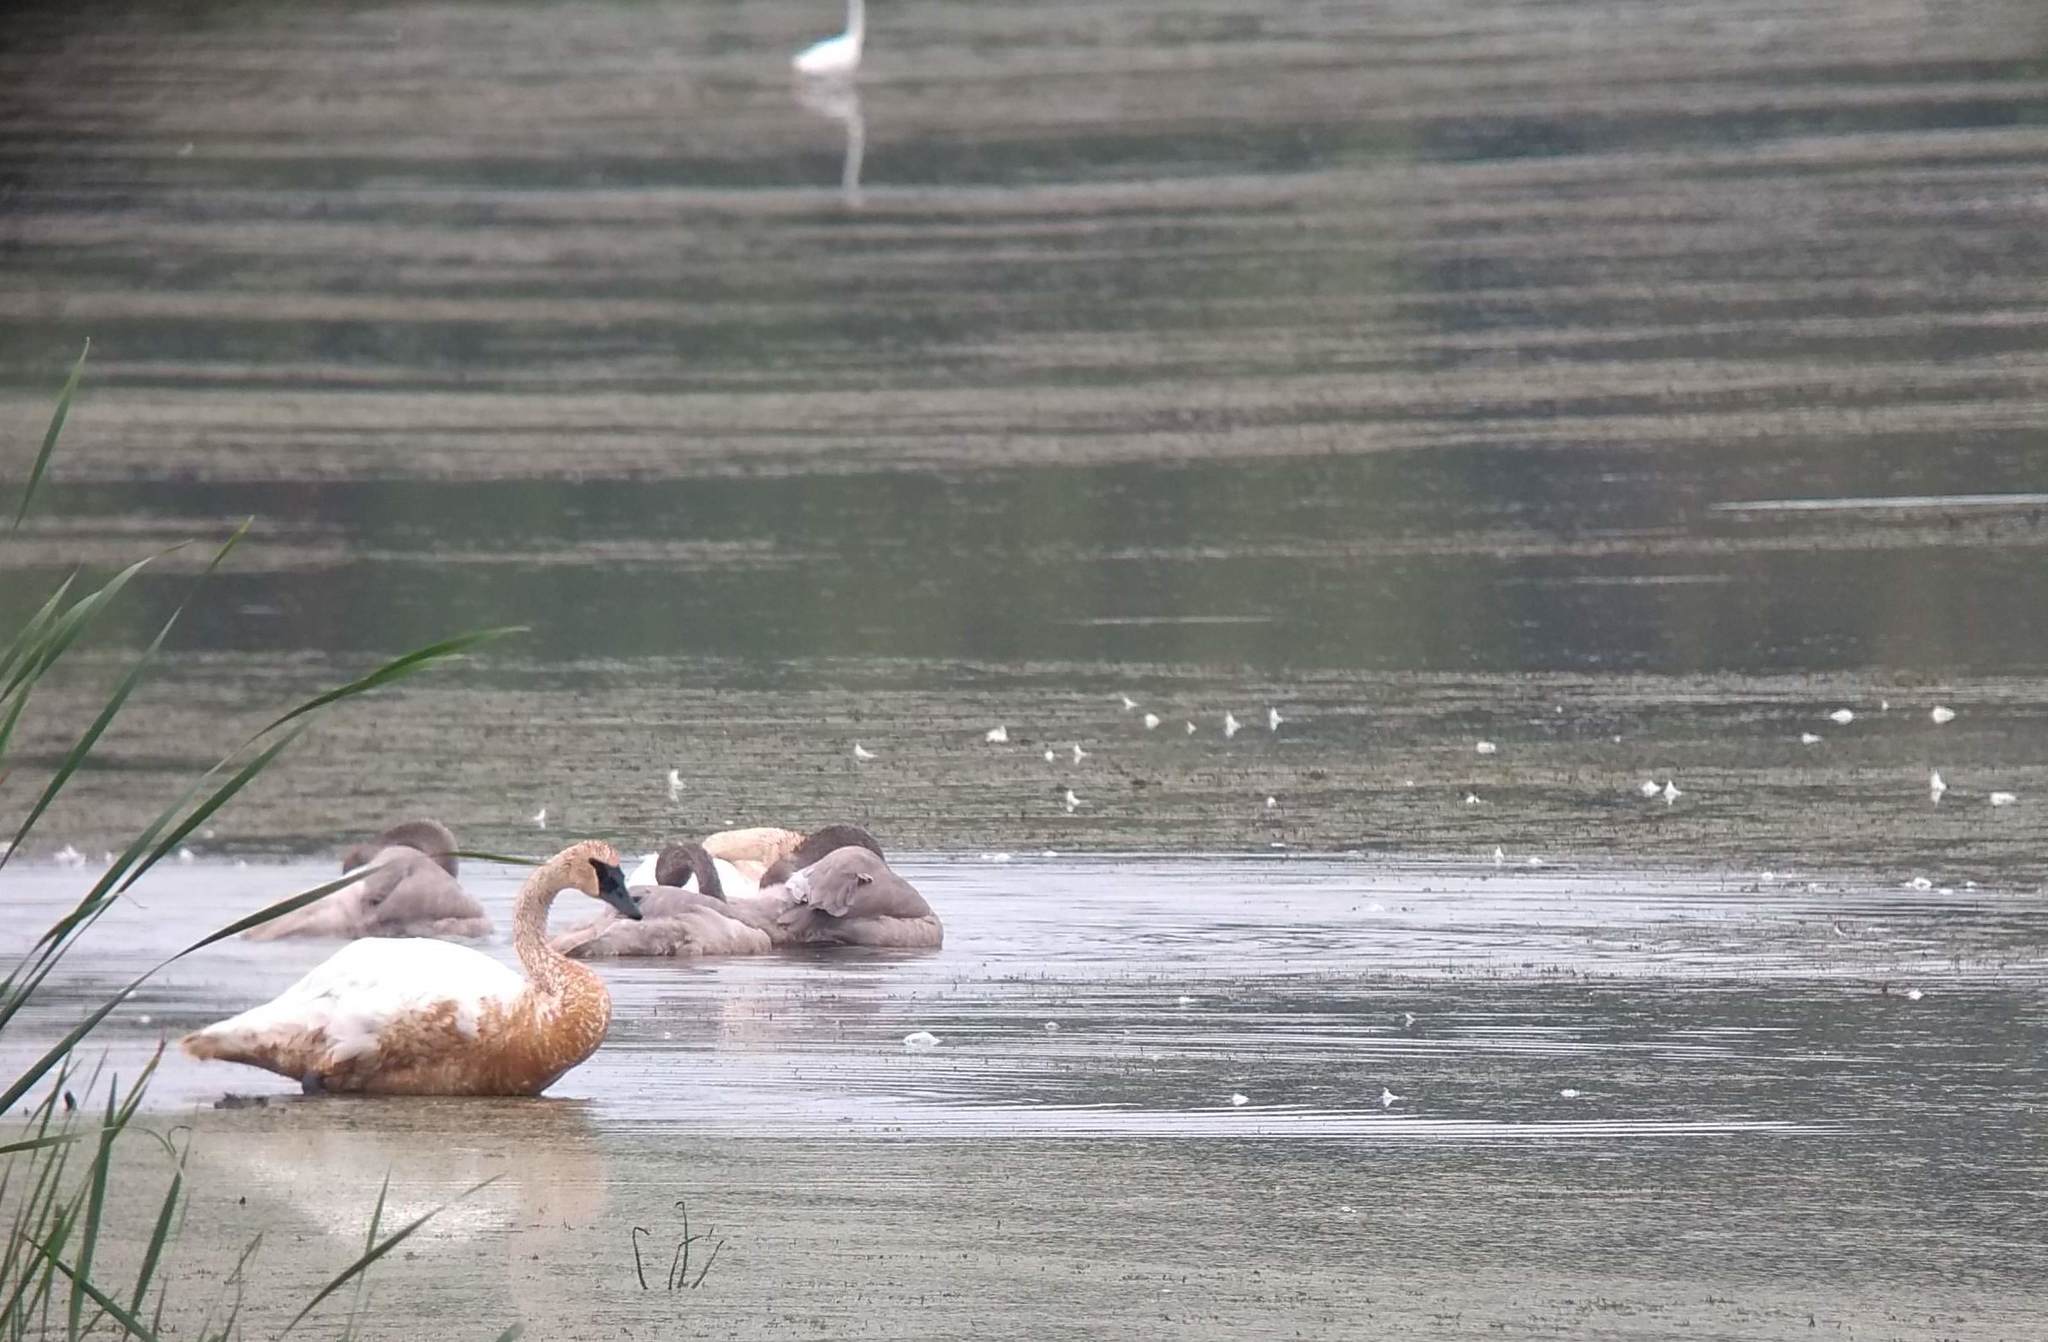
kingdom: Animalia
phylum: Chordata
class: Aves
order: Anseriformes
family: Anatidae
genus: Cygnus
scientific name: Cygnus buccinator
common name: Trumpeter swan
